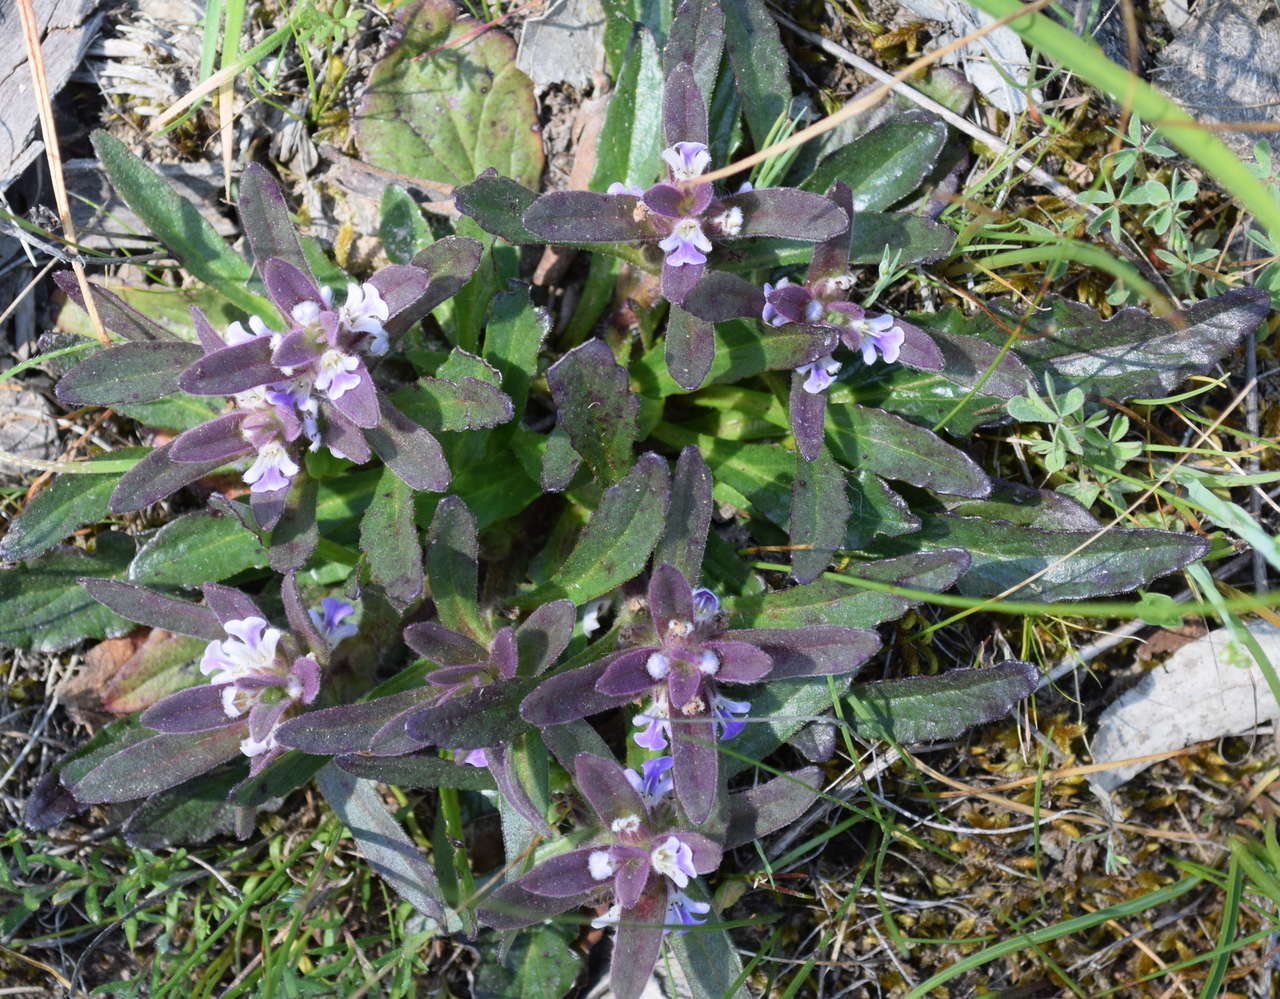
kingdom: Plantae
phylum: Tracheophyta
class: Magnoliopsida
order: Lamiales
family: Lamiaceae
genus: Ajuga
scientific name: Ajuga australis
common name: Australian bugle
